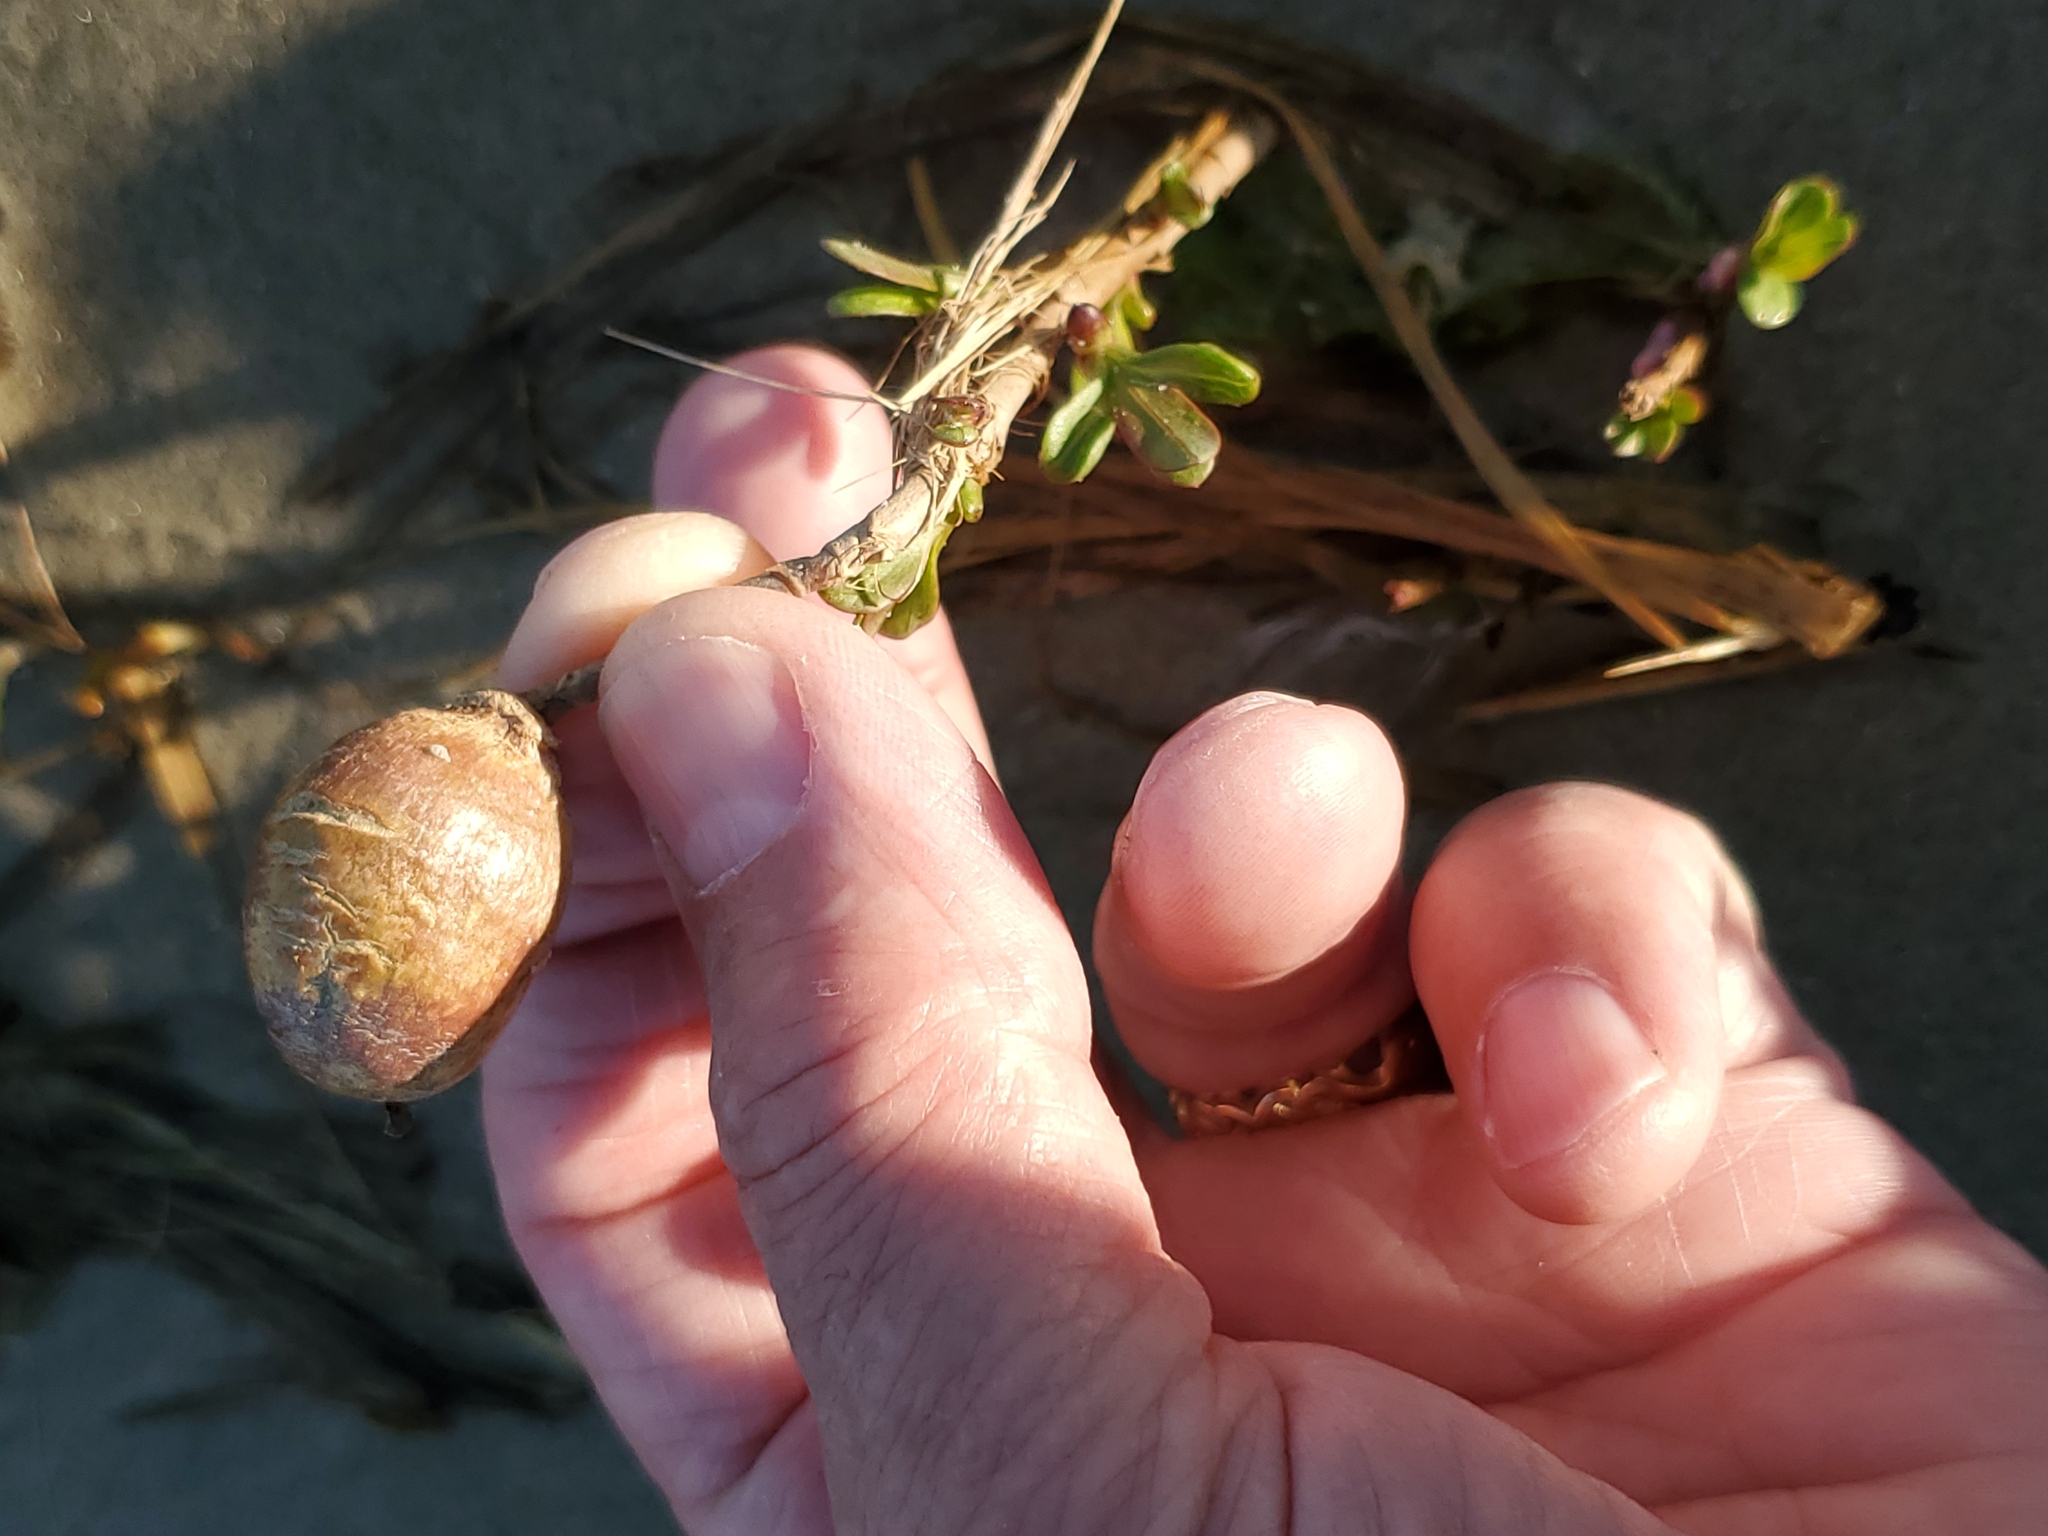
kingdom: Plantae
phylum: Tracheophyta
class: Magnoliopsida
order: Solanales
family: Convolvulaceae
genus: Ipomoea
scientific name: Ipomoea imperati
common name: Fiddle-leaf morning-glory
